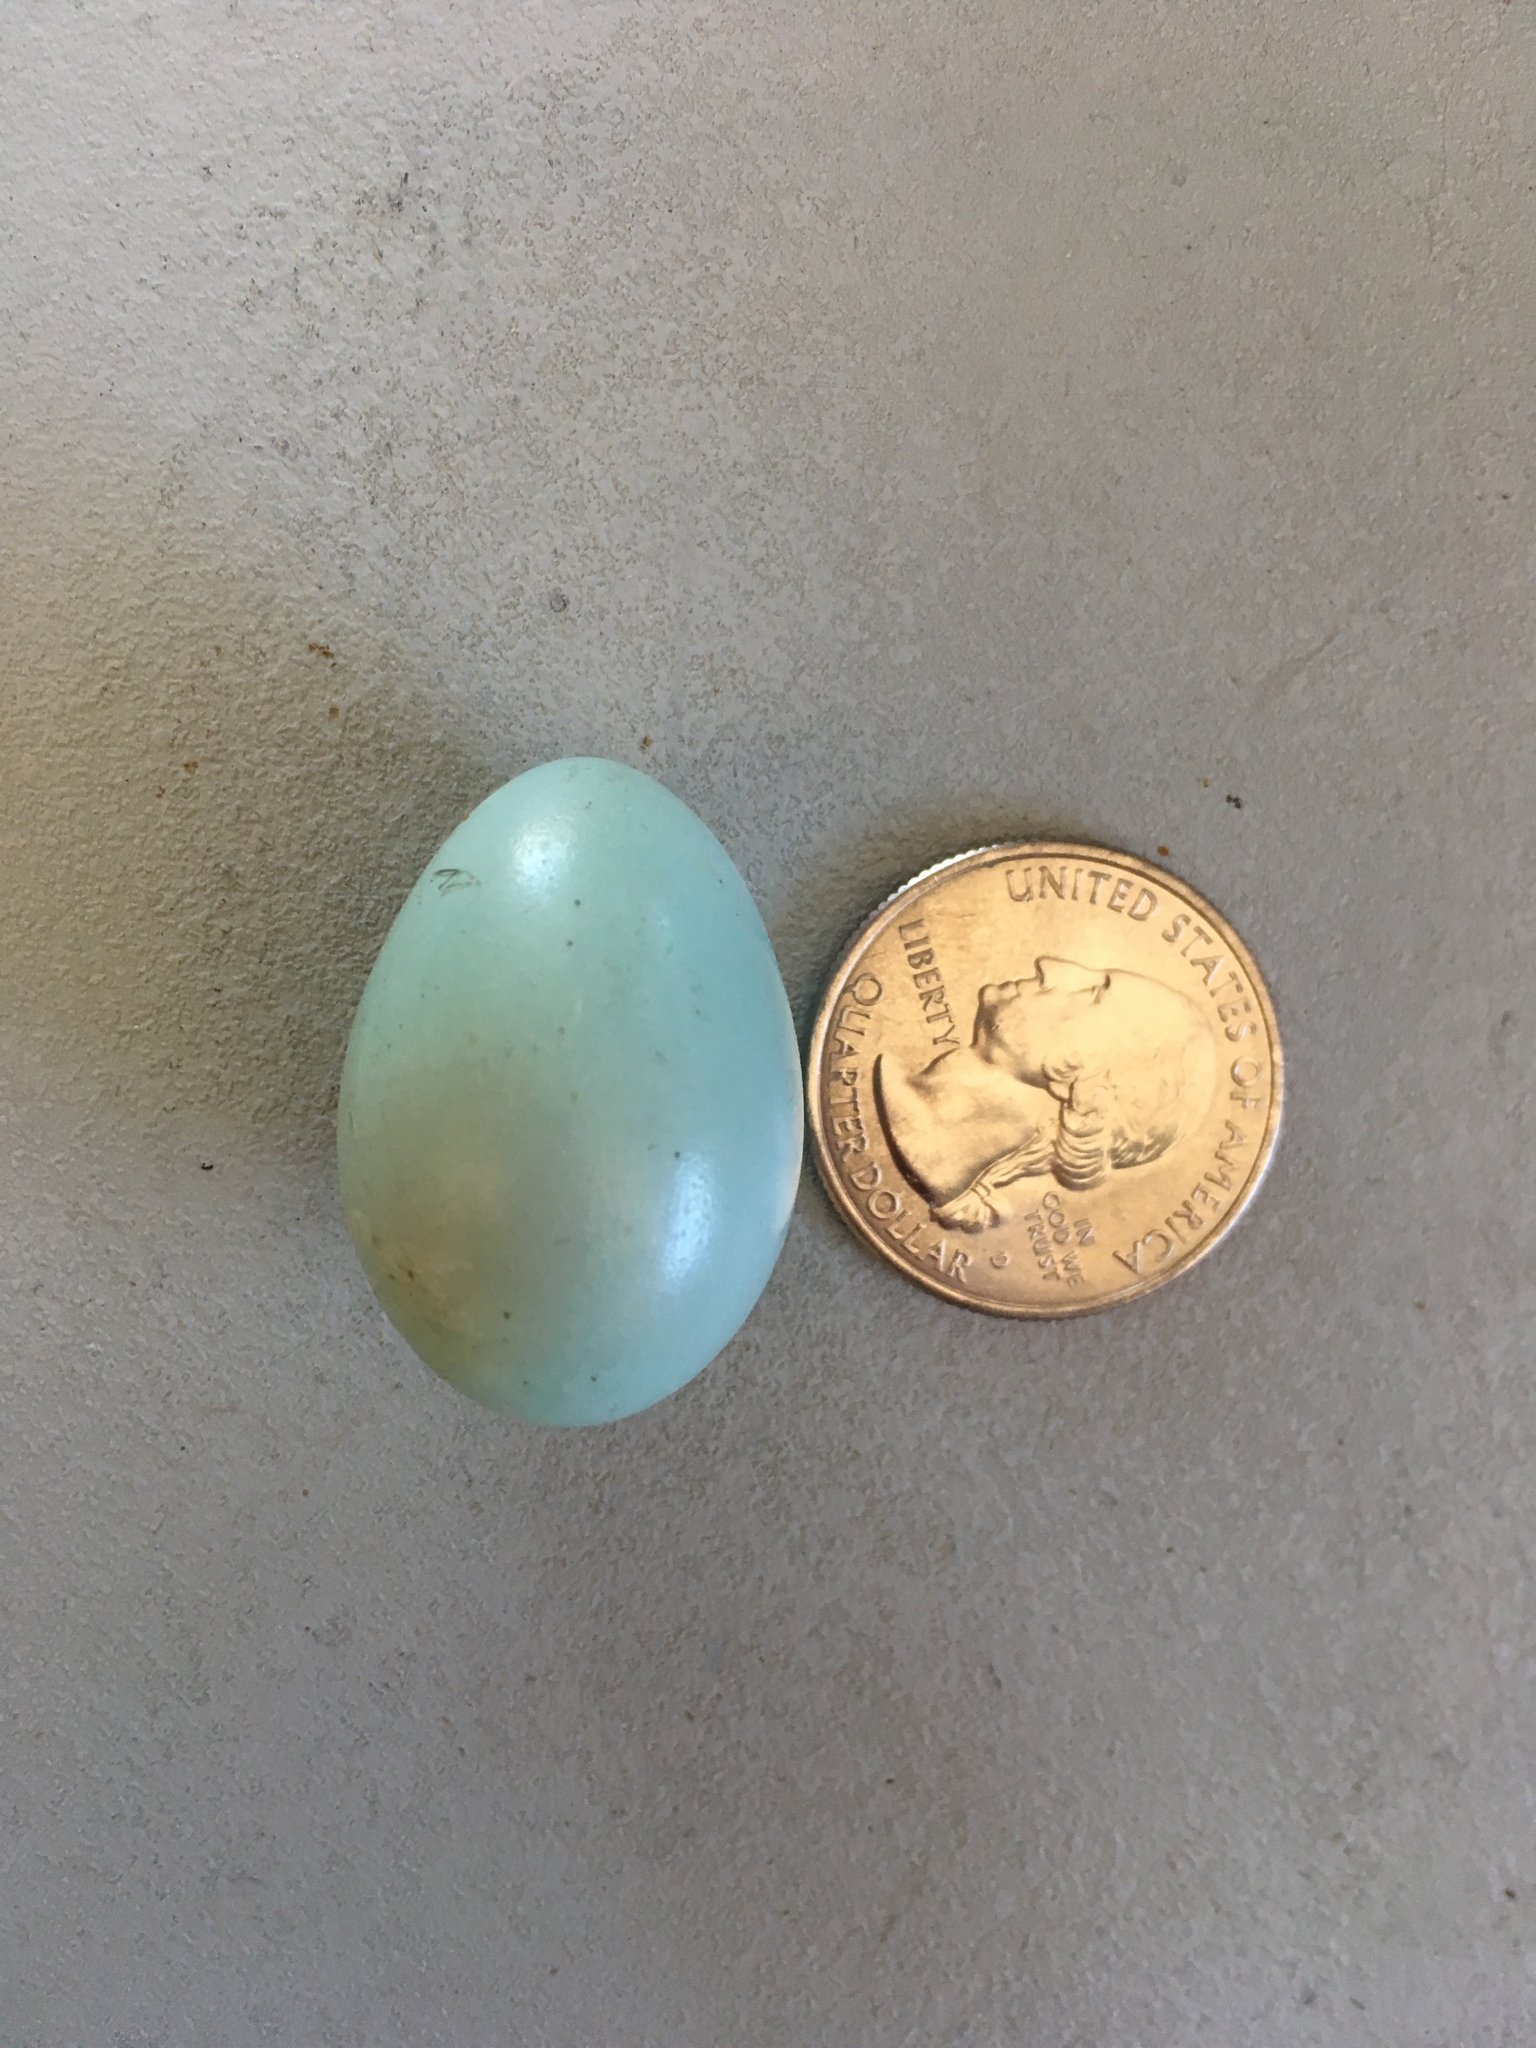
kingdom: Animalia
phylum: Chordata
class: Aves
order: Passeriformes
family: Turdidae
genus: Turdus
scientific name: Turdus migratorius
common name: American robin
